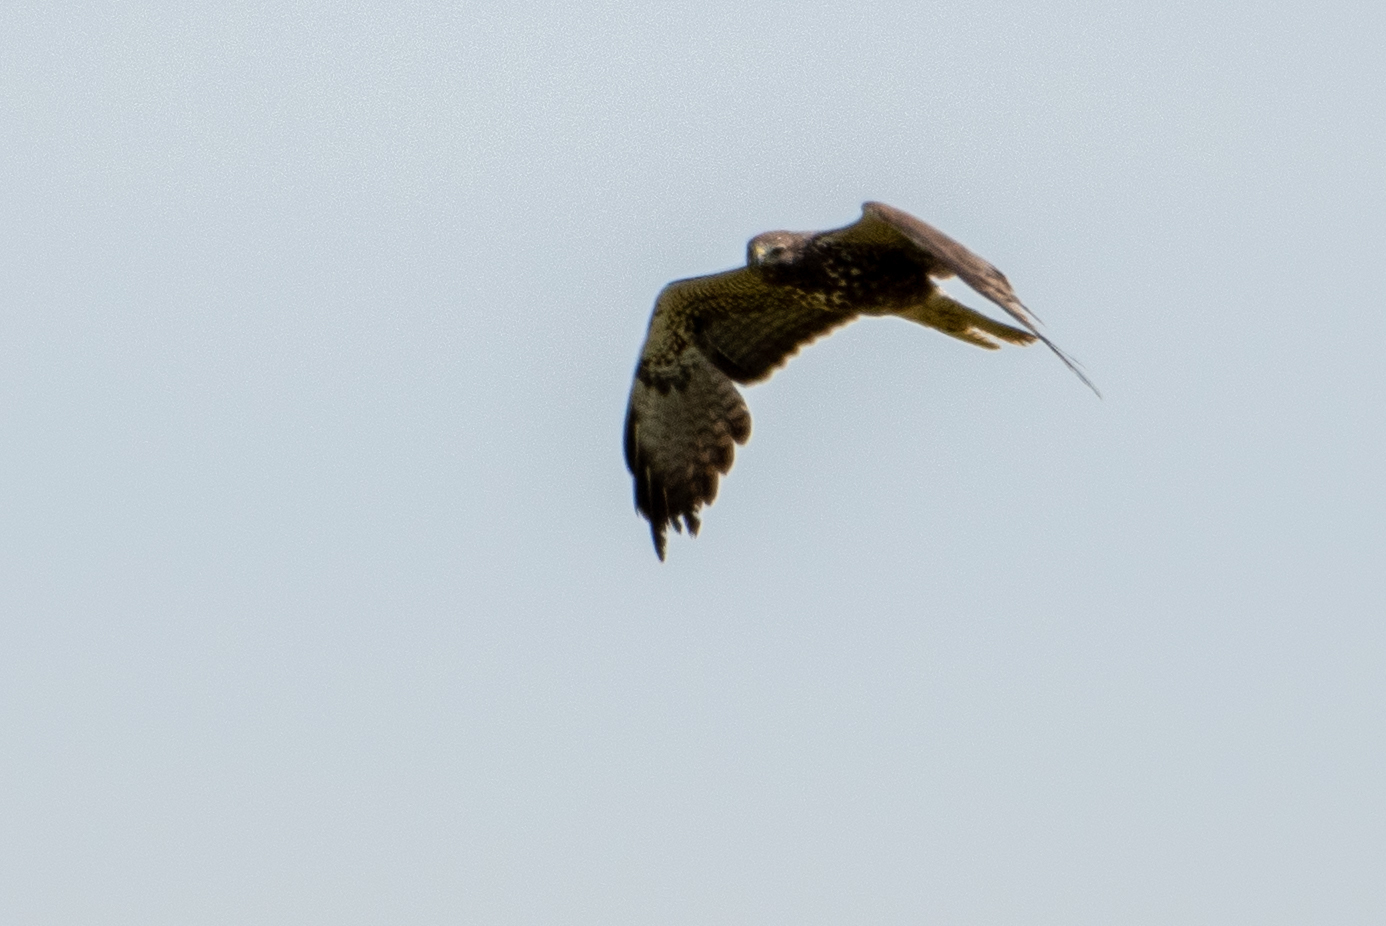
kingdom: Animalia
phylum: Chordata
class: Aves
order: Accipitriformes
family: Accipitridae
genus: Buteo
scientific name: Buteo swainsoni
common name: Swainson's hawk
